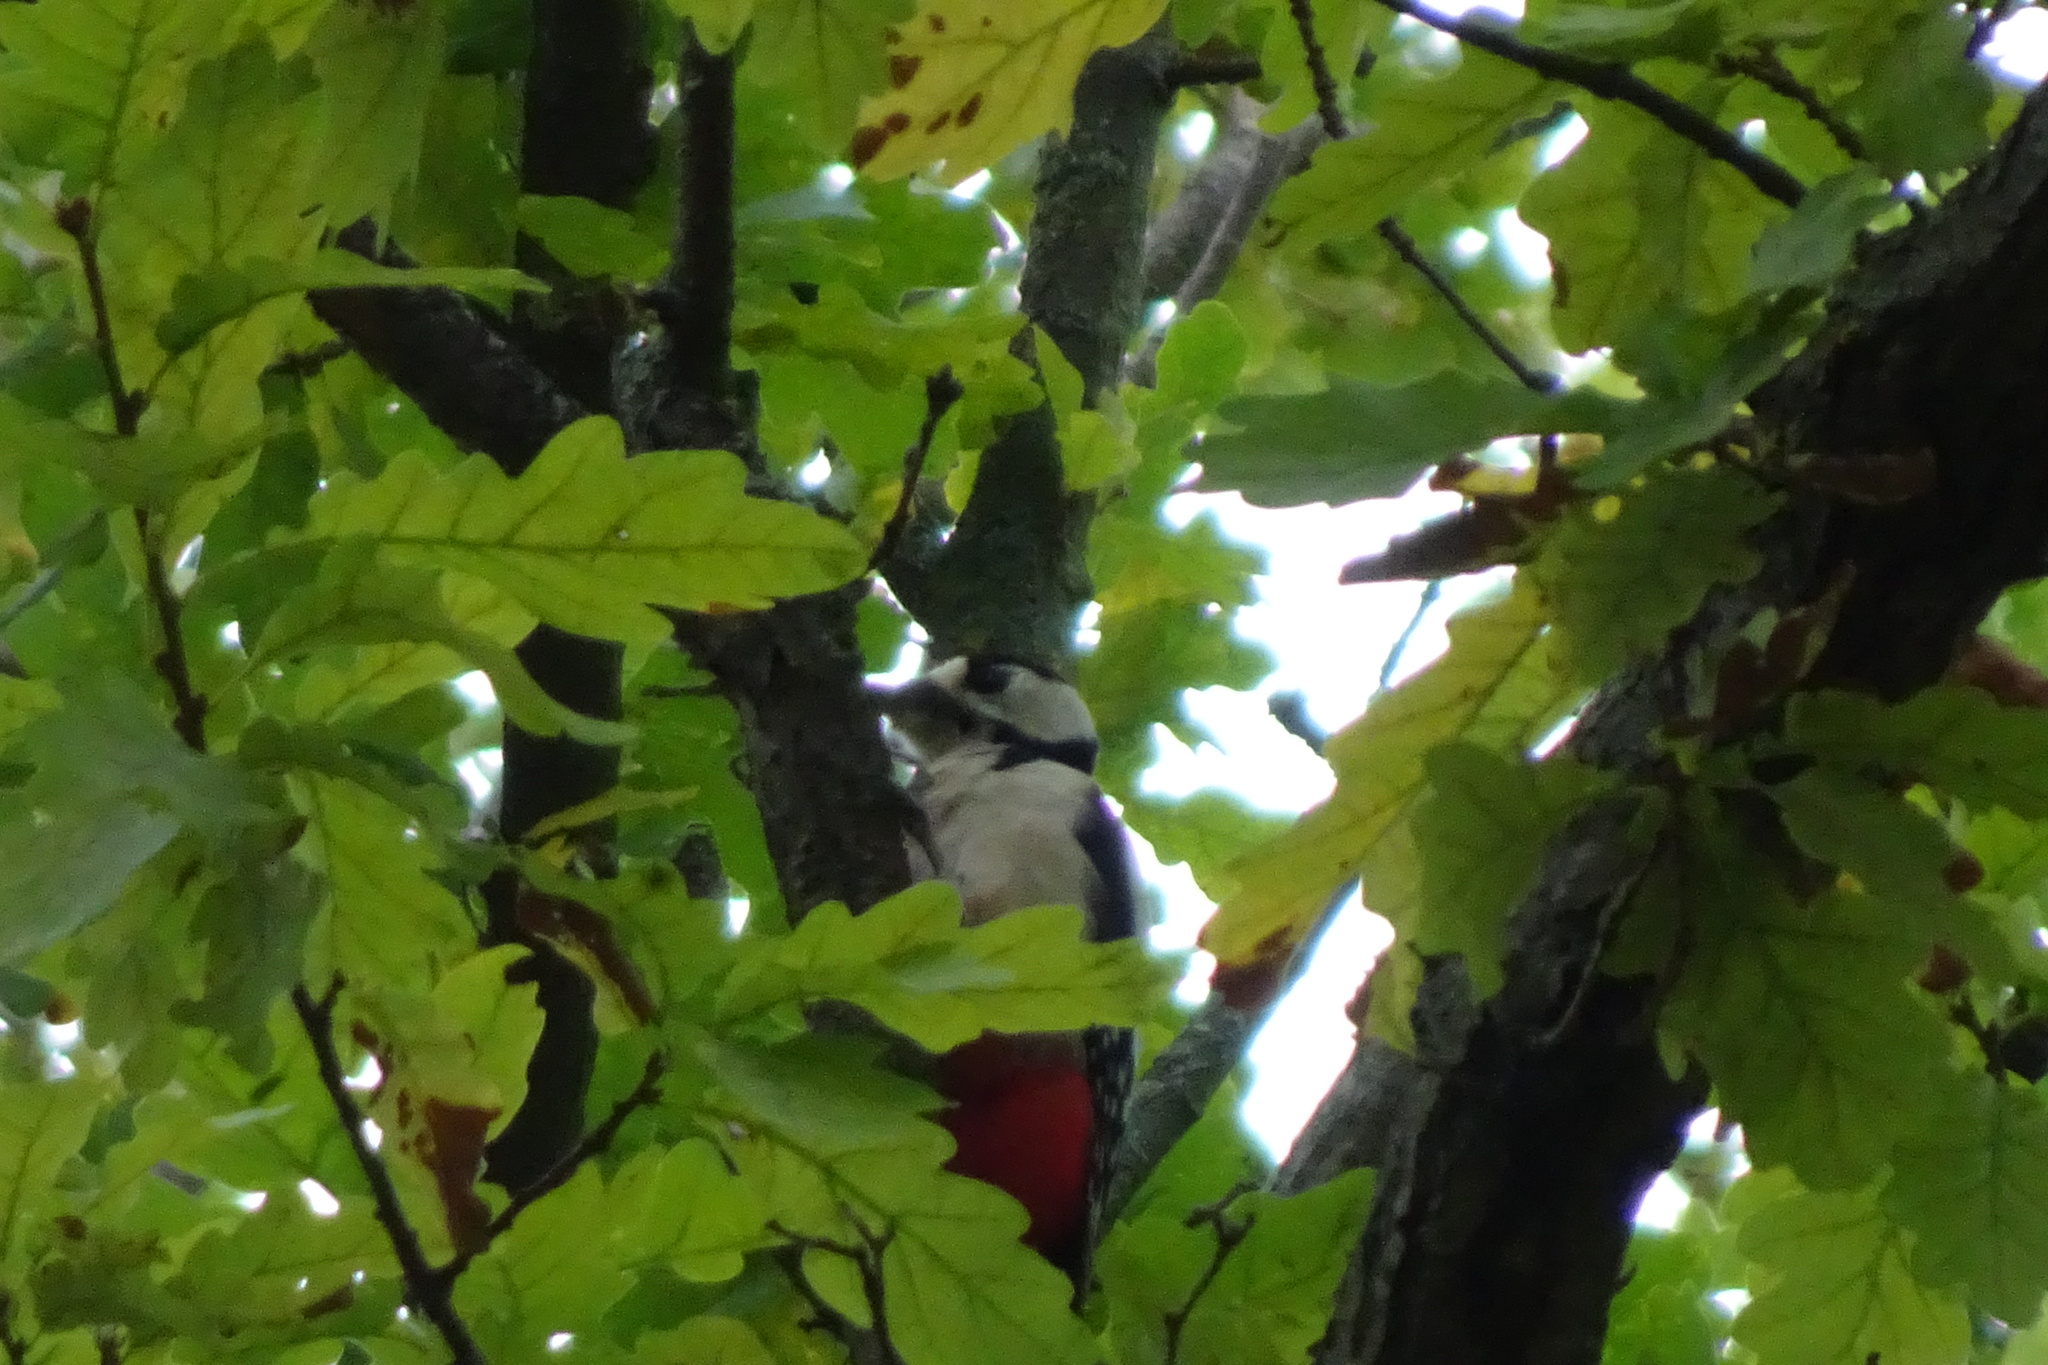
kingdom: Animalia
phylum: Chordata
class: Aves
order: Piciformes
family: Picidae
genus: Dendrocopos
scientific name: Dendrocopos major
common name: Great spotted woodpecker
